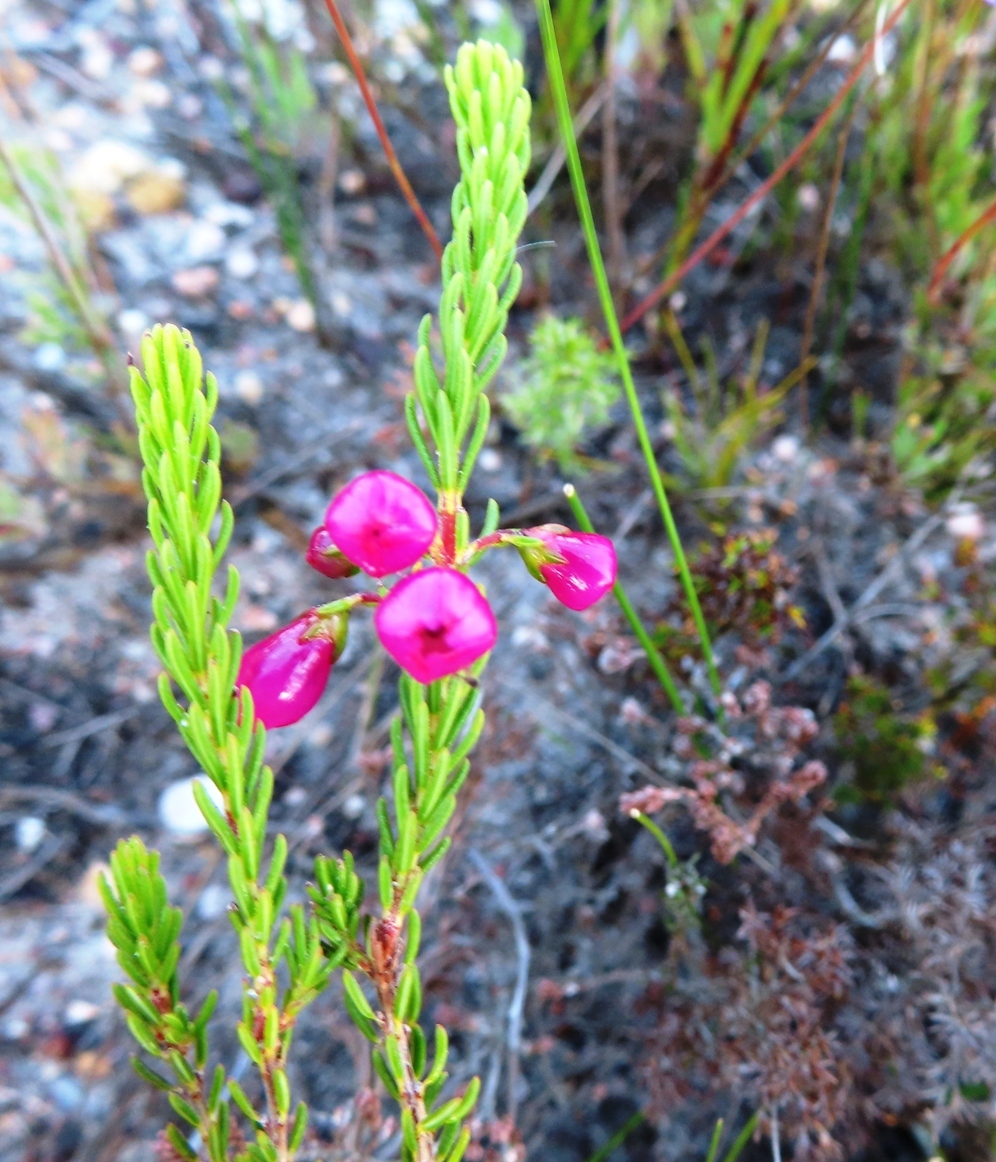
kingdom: Plantae
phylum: Tracheophyta
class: Magnoliopsida
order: Ericales
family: Ericaceae
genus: Erica
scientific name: Erica axilliflora
